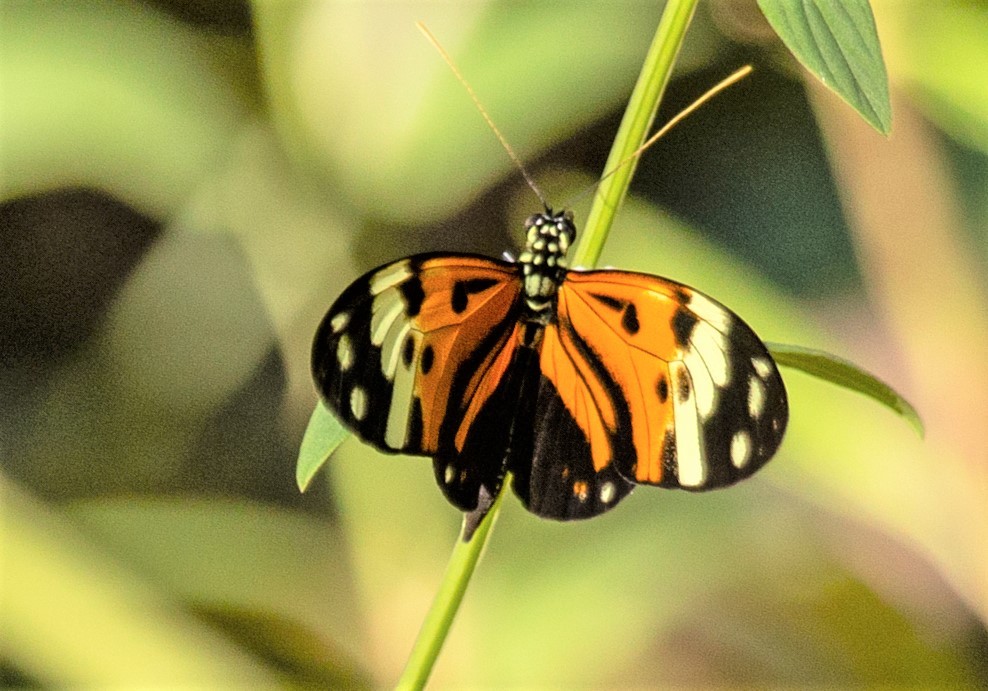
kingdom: Animalia
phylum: Arthropoda
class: Insecta
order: Lepidoptera
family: Nymphalidae
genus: Heliconius
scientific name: Heliconius numatus
